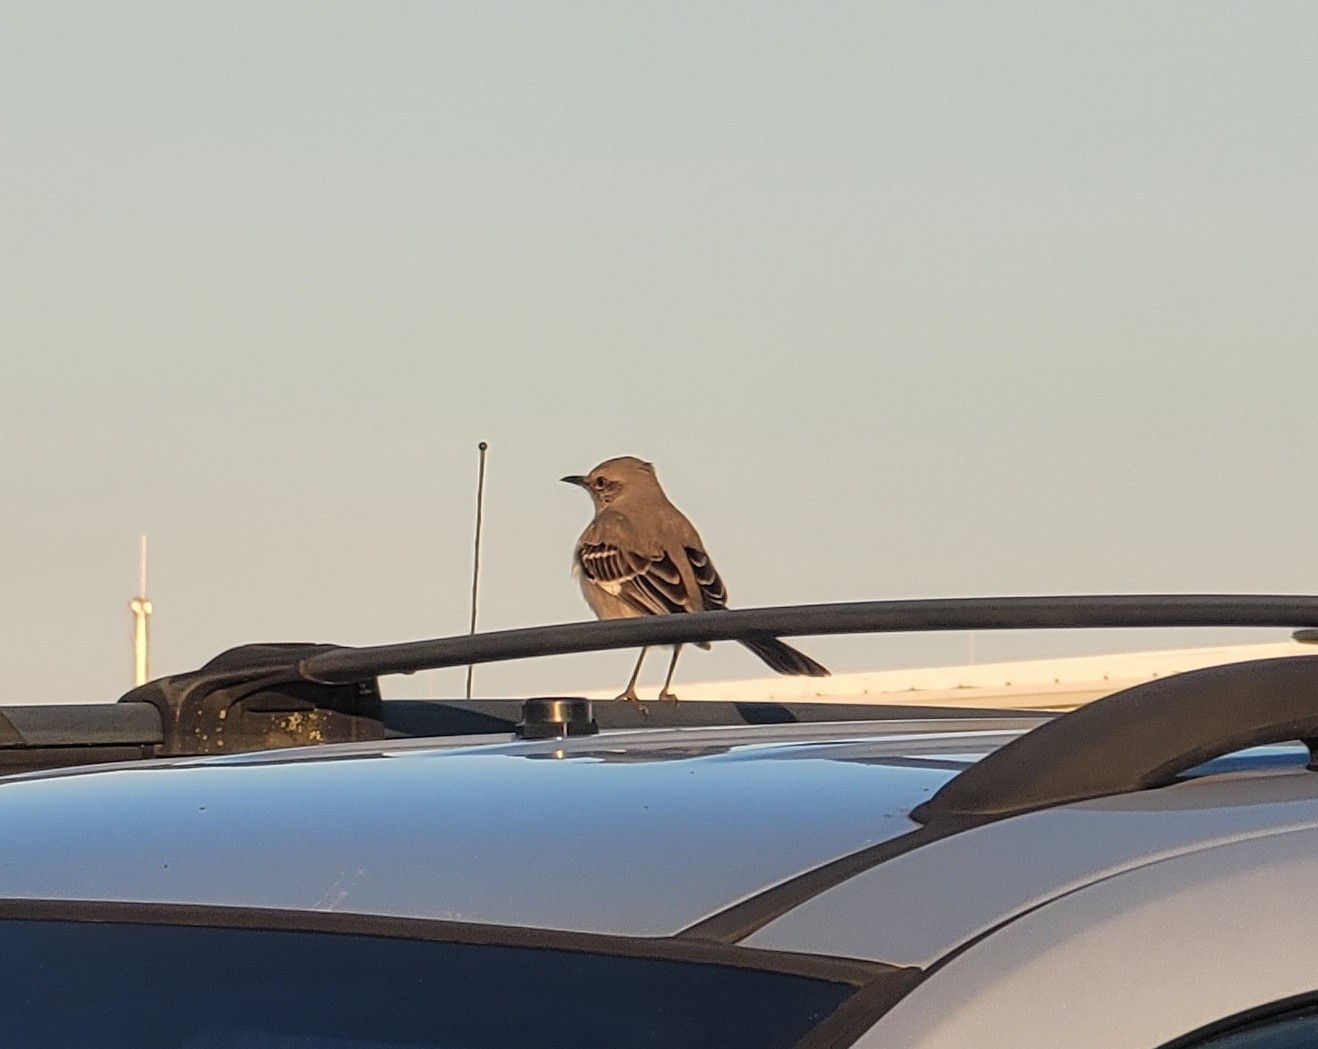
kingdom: Animalia
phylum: Chordata
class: Aves
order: Passeriformes
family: Mimidae
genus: Mimus
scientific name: Mimus polyglottos
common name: Northern mockingbird
